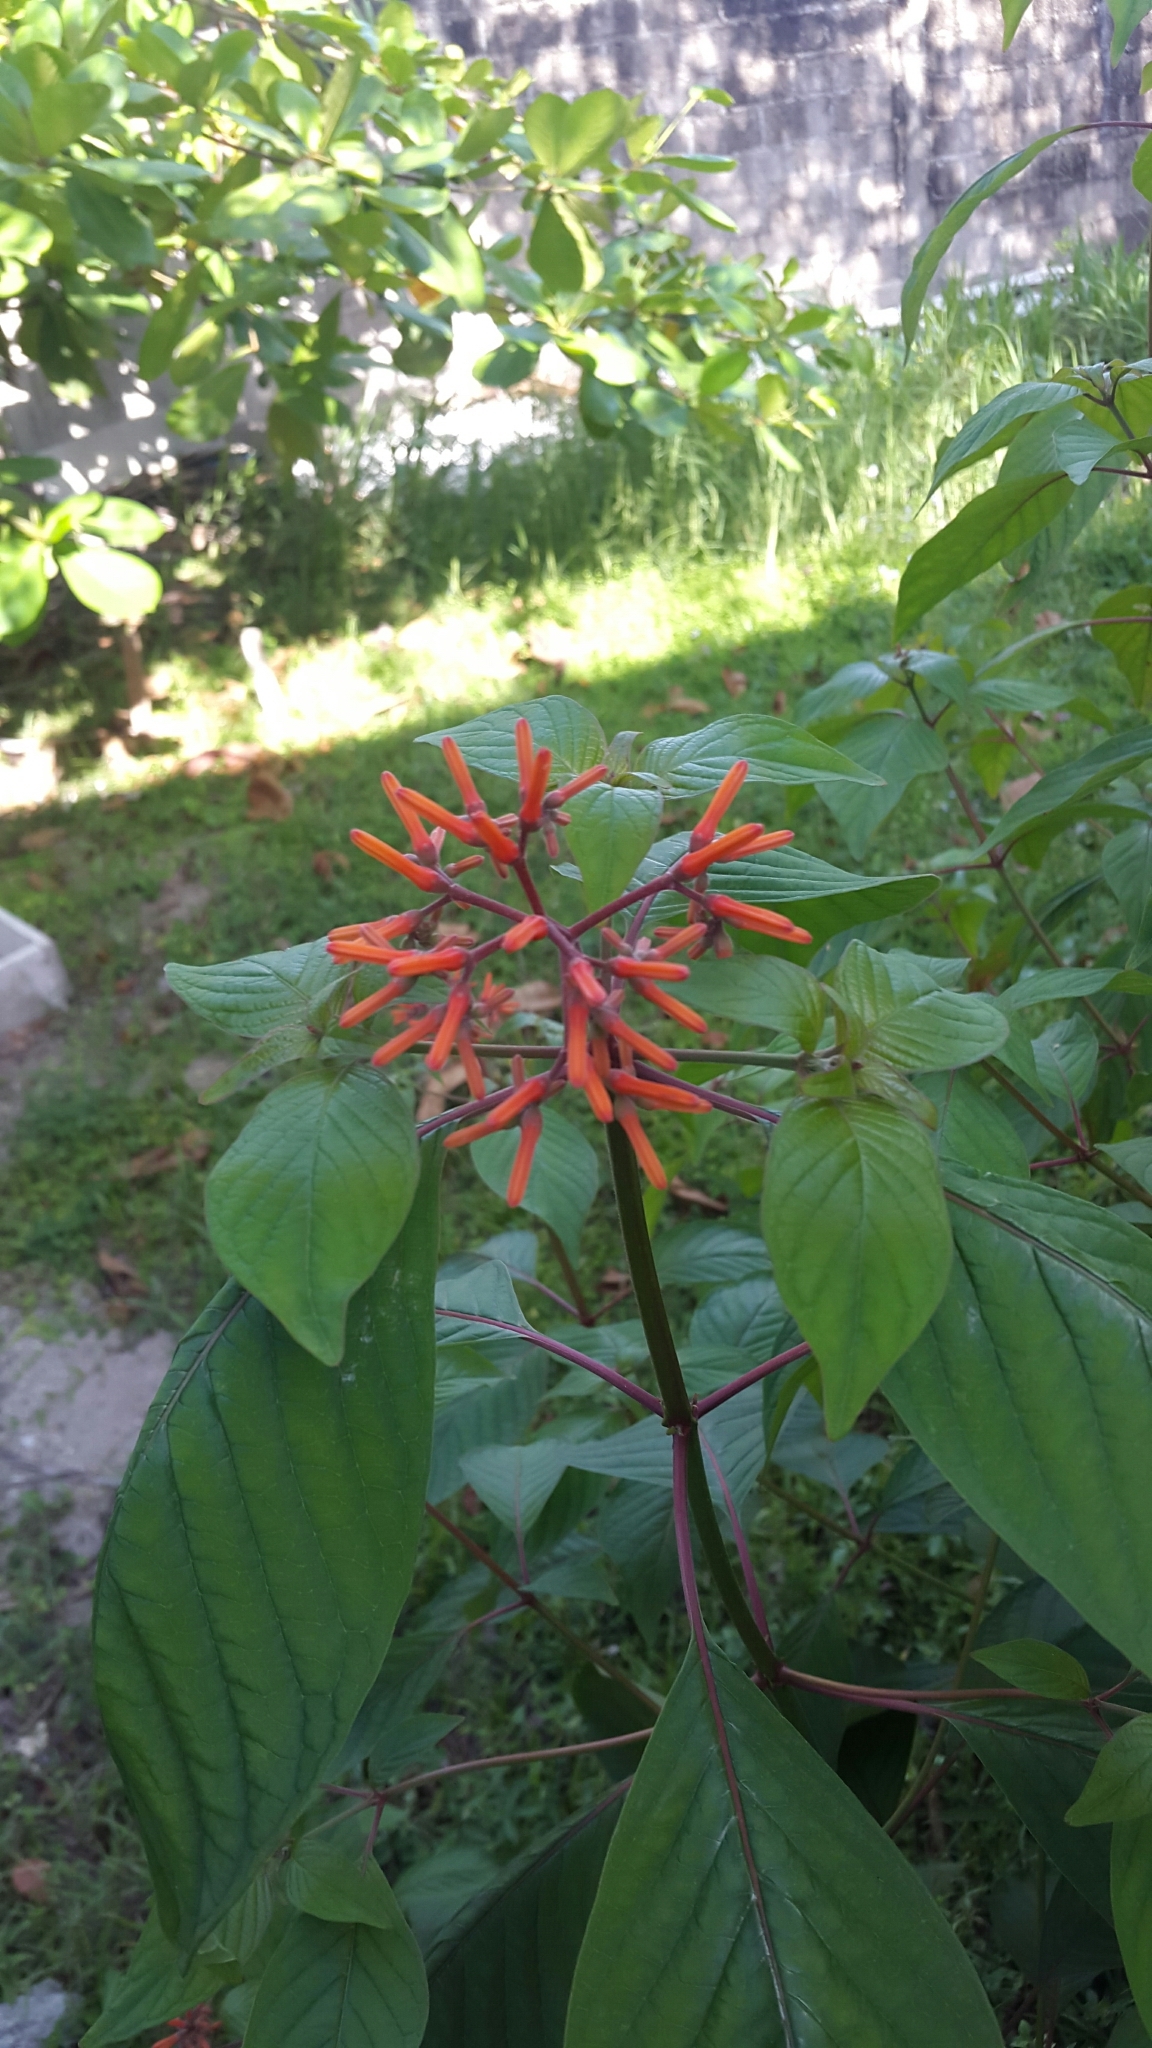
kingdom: Plantae
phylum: Tracheophyta
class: Magnoliopsida
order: Gentianales
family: Rubiaceae
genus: Hamelia
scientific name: Hamelia patens
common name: Redhead
